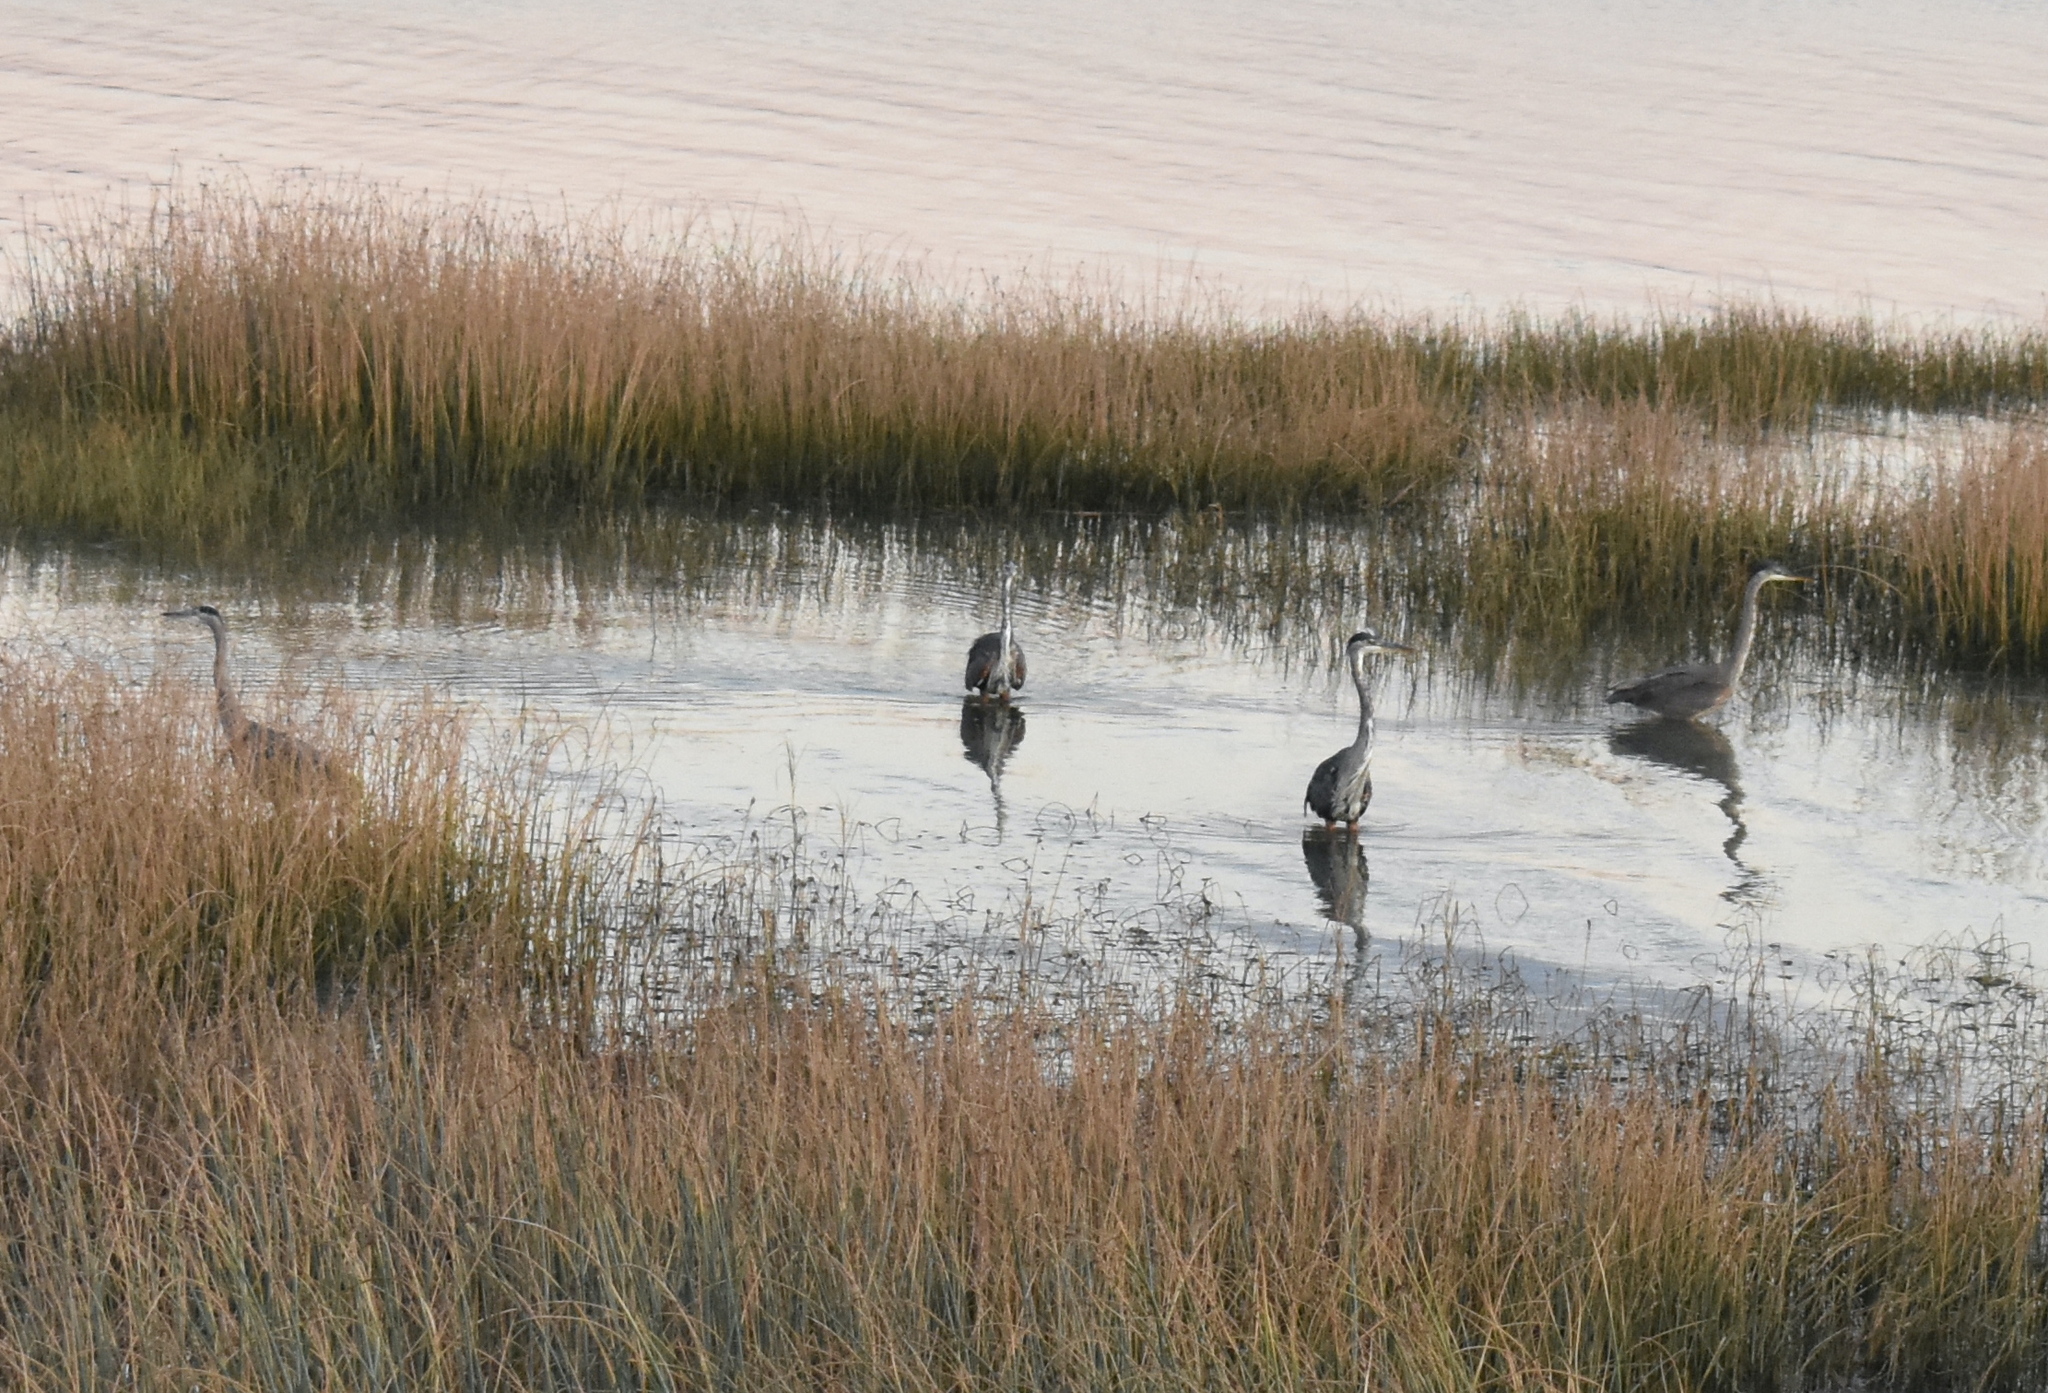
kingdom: Animalia
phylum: Chordata
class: Aves
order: Pelecaniformes
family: Ardeidae
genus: Ardea
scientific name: Ardea herodias
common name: Great blue heron
